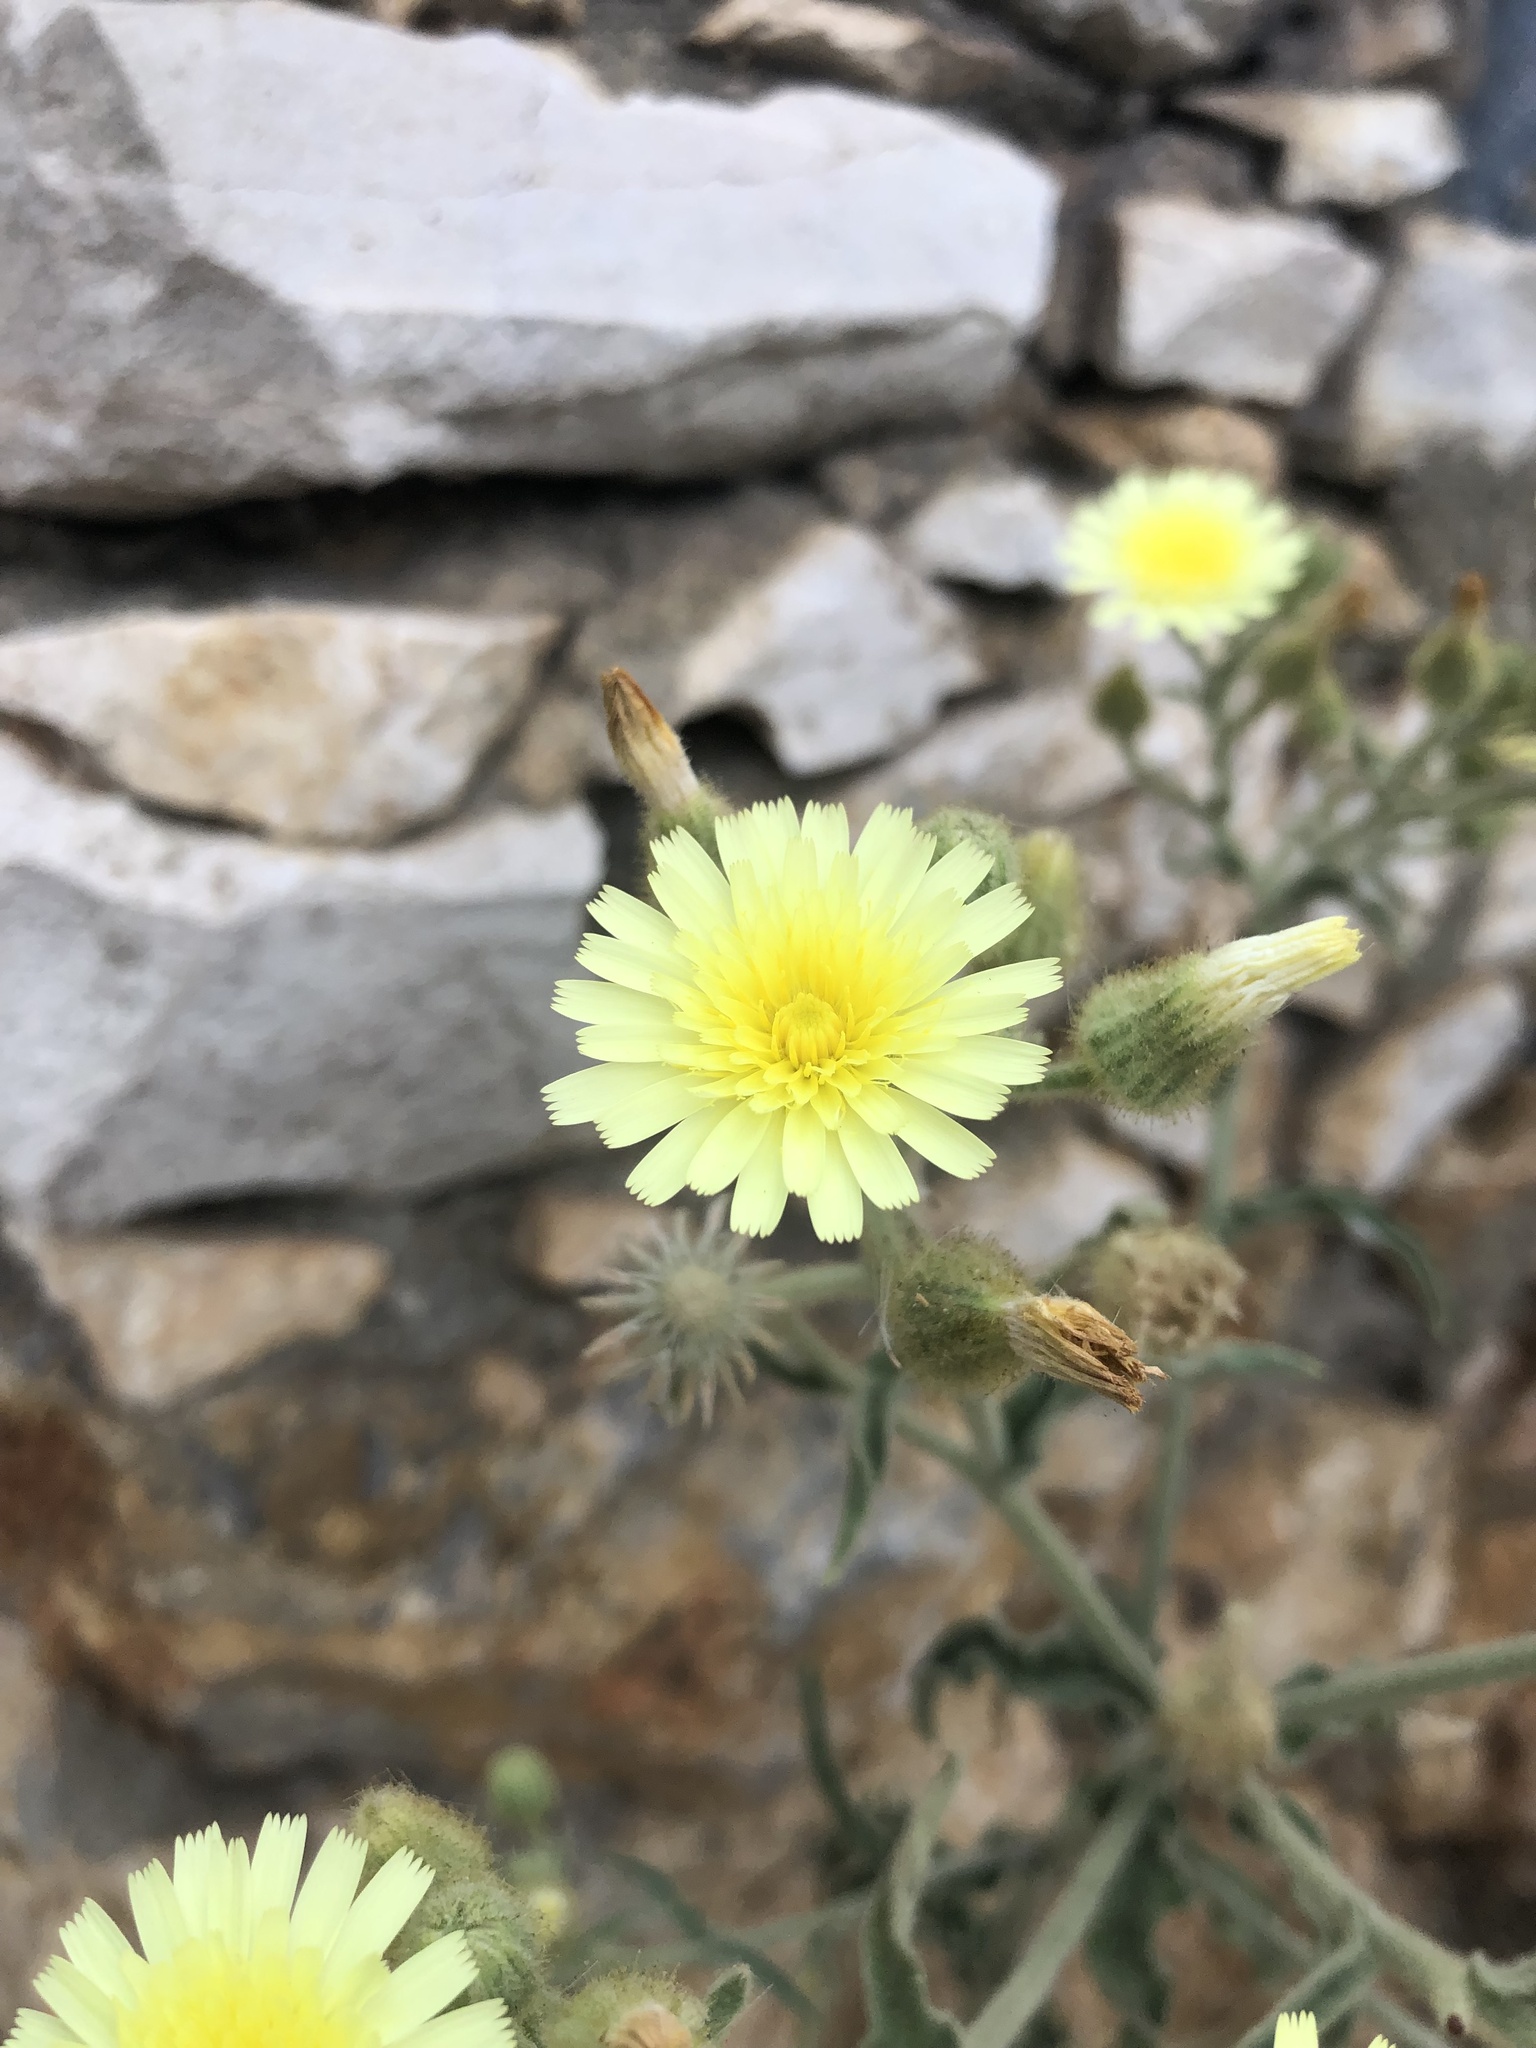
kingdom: Plantae
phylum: Tracheophyta
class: Magnoliopsida
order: Asterales
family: Asteraceae
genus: Andryala
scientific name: Andryala integrifolia
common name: Common andryala
